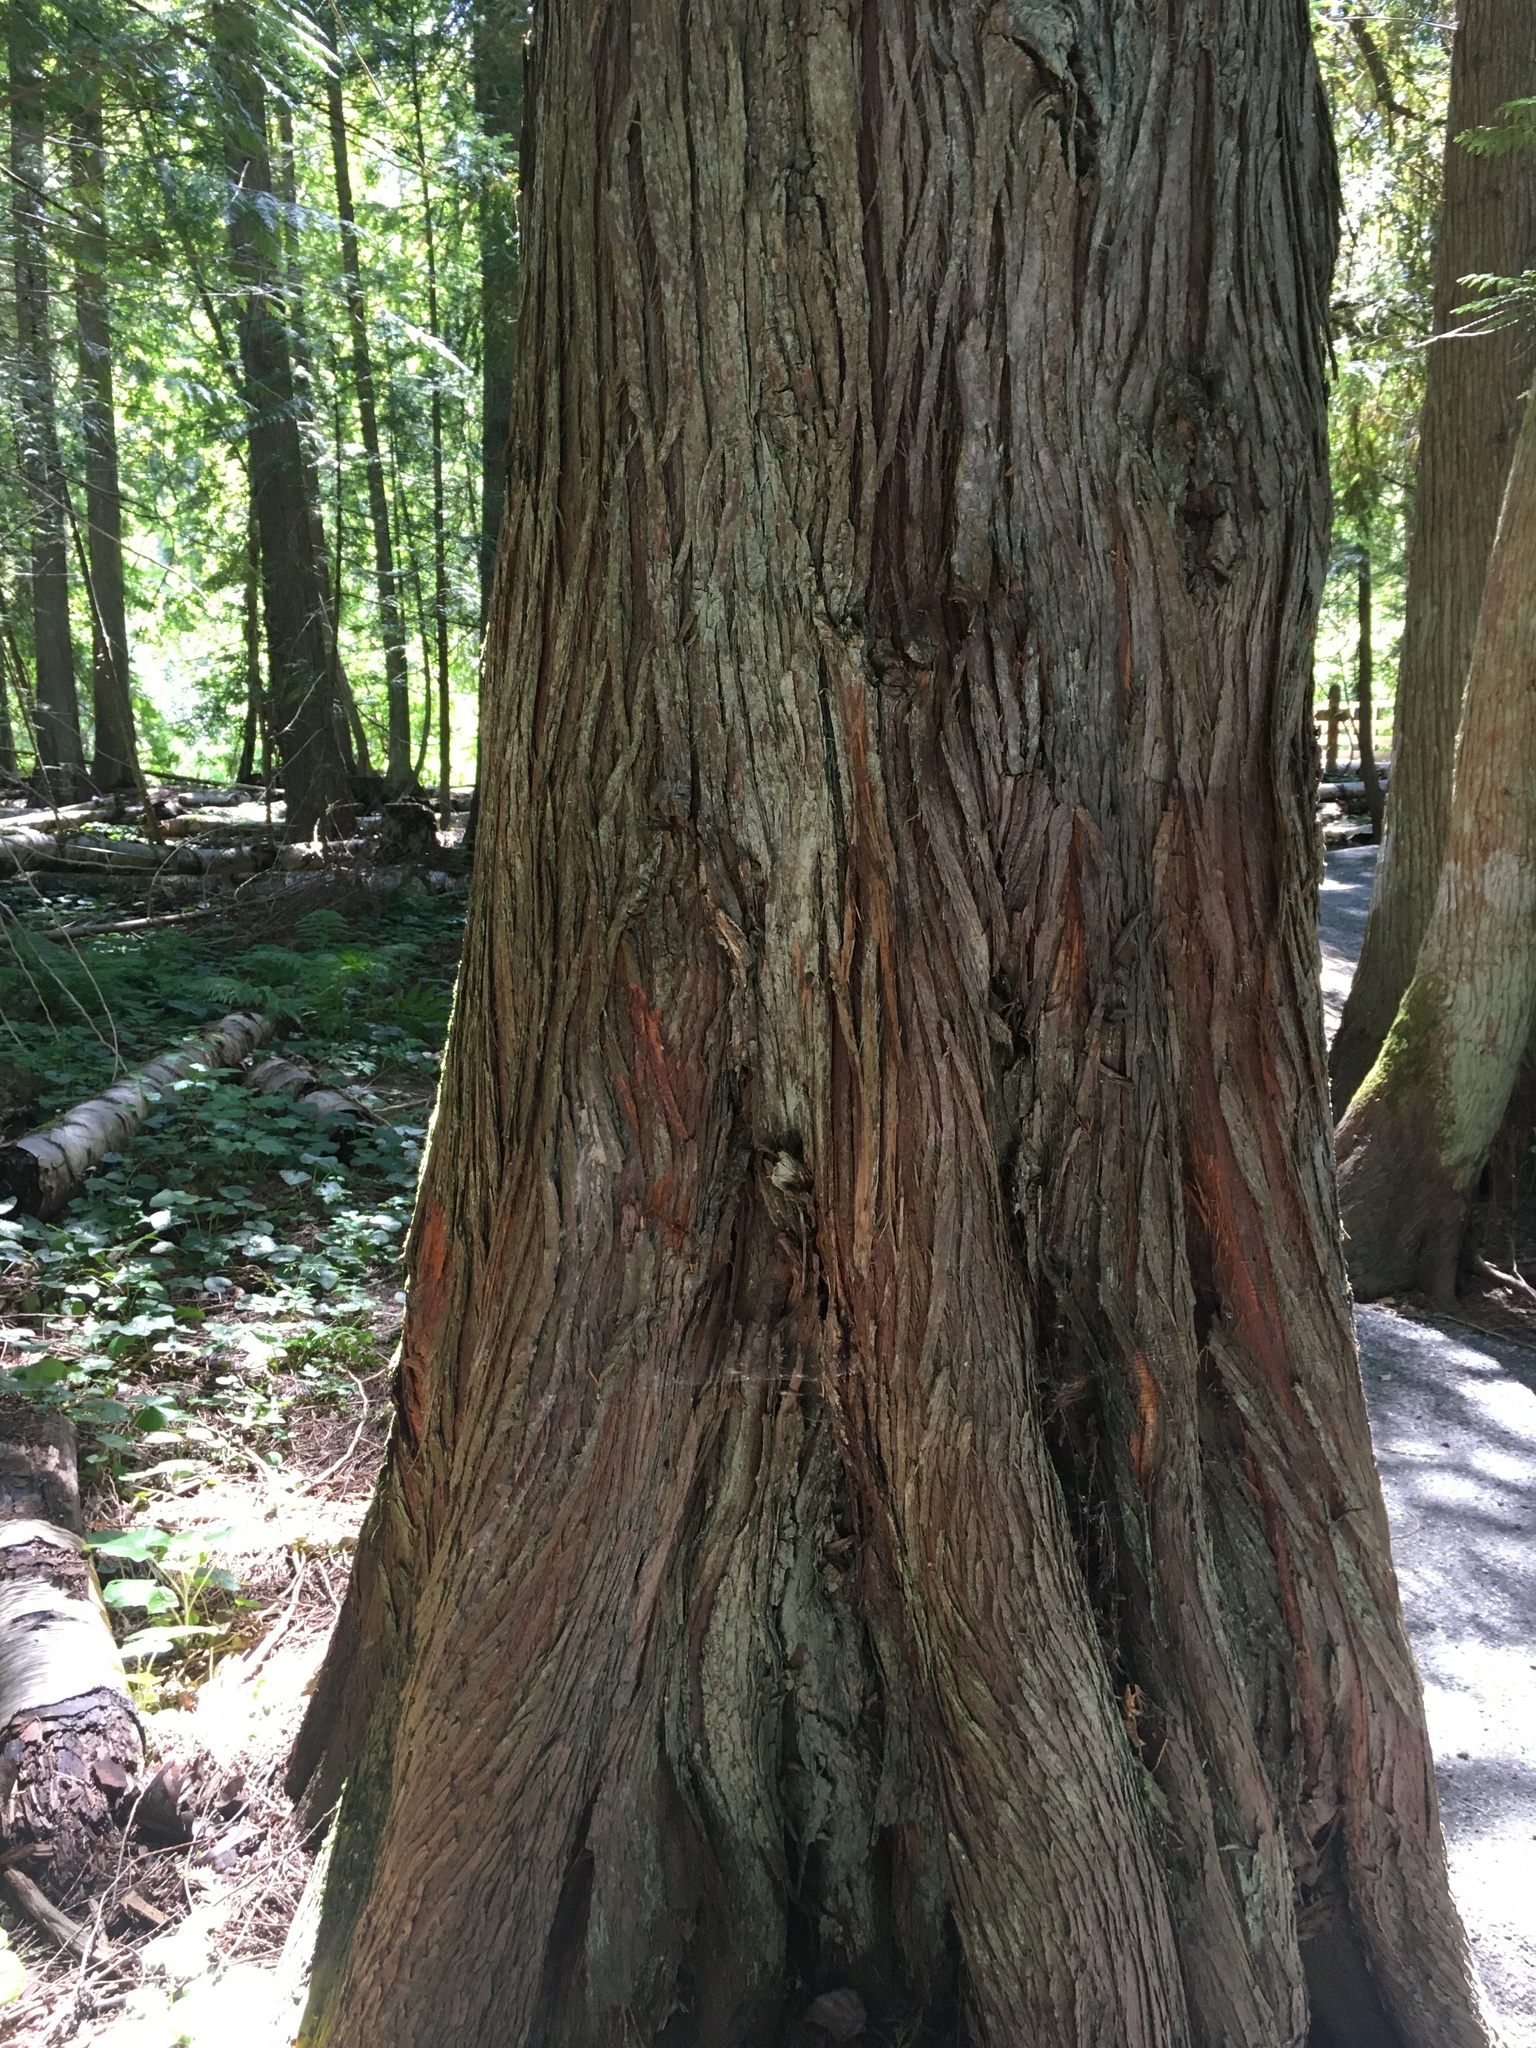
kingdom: Plantae
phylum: Tracheophyta
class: Pinopsida
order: Pinales
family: Cupressaceae
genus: Thuja
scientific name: Thuja plicata
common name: Western red-cedar
